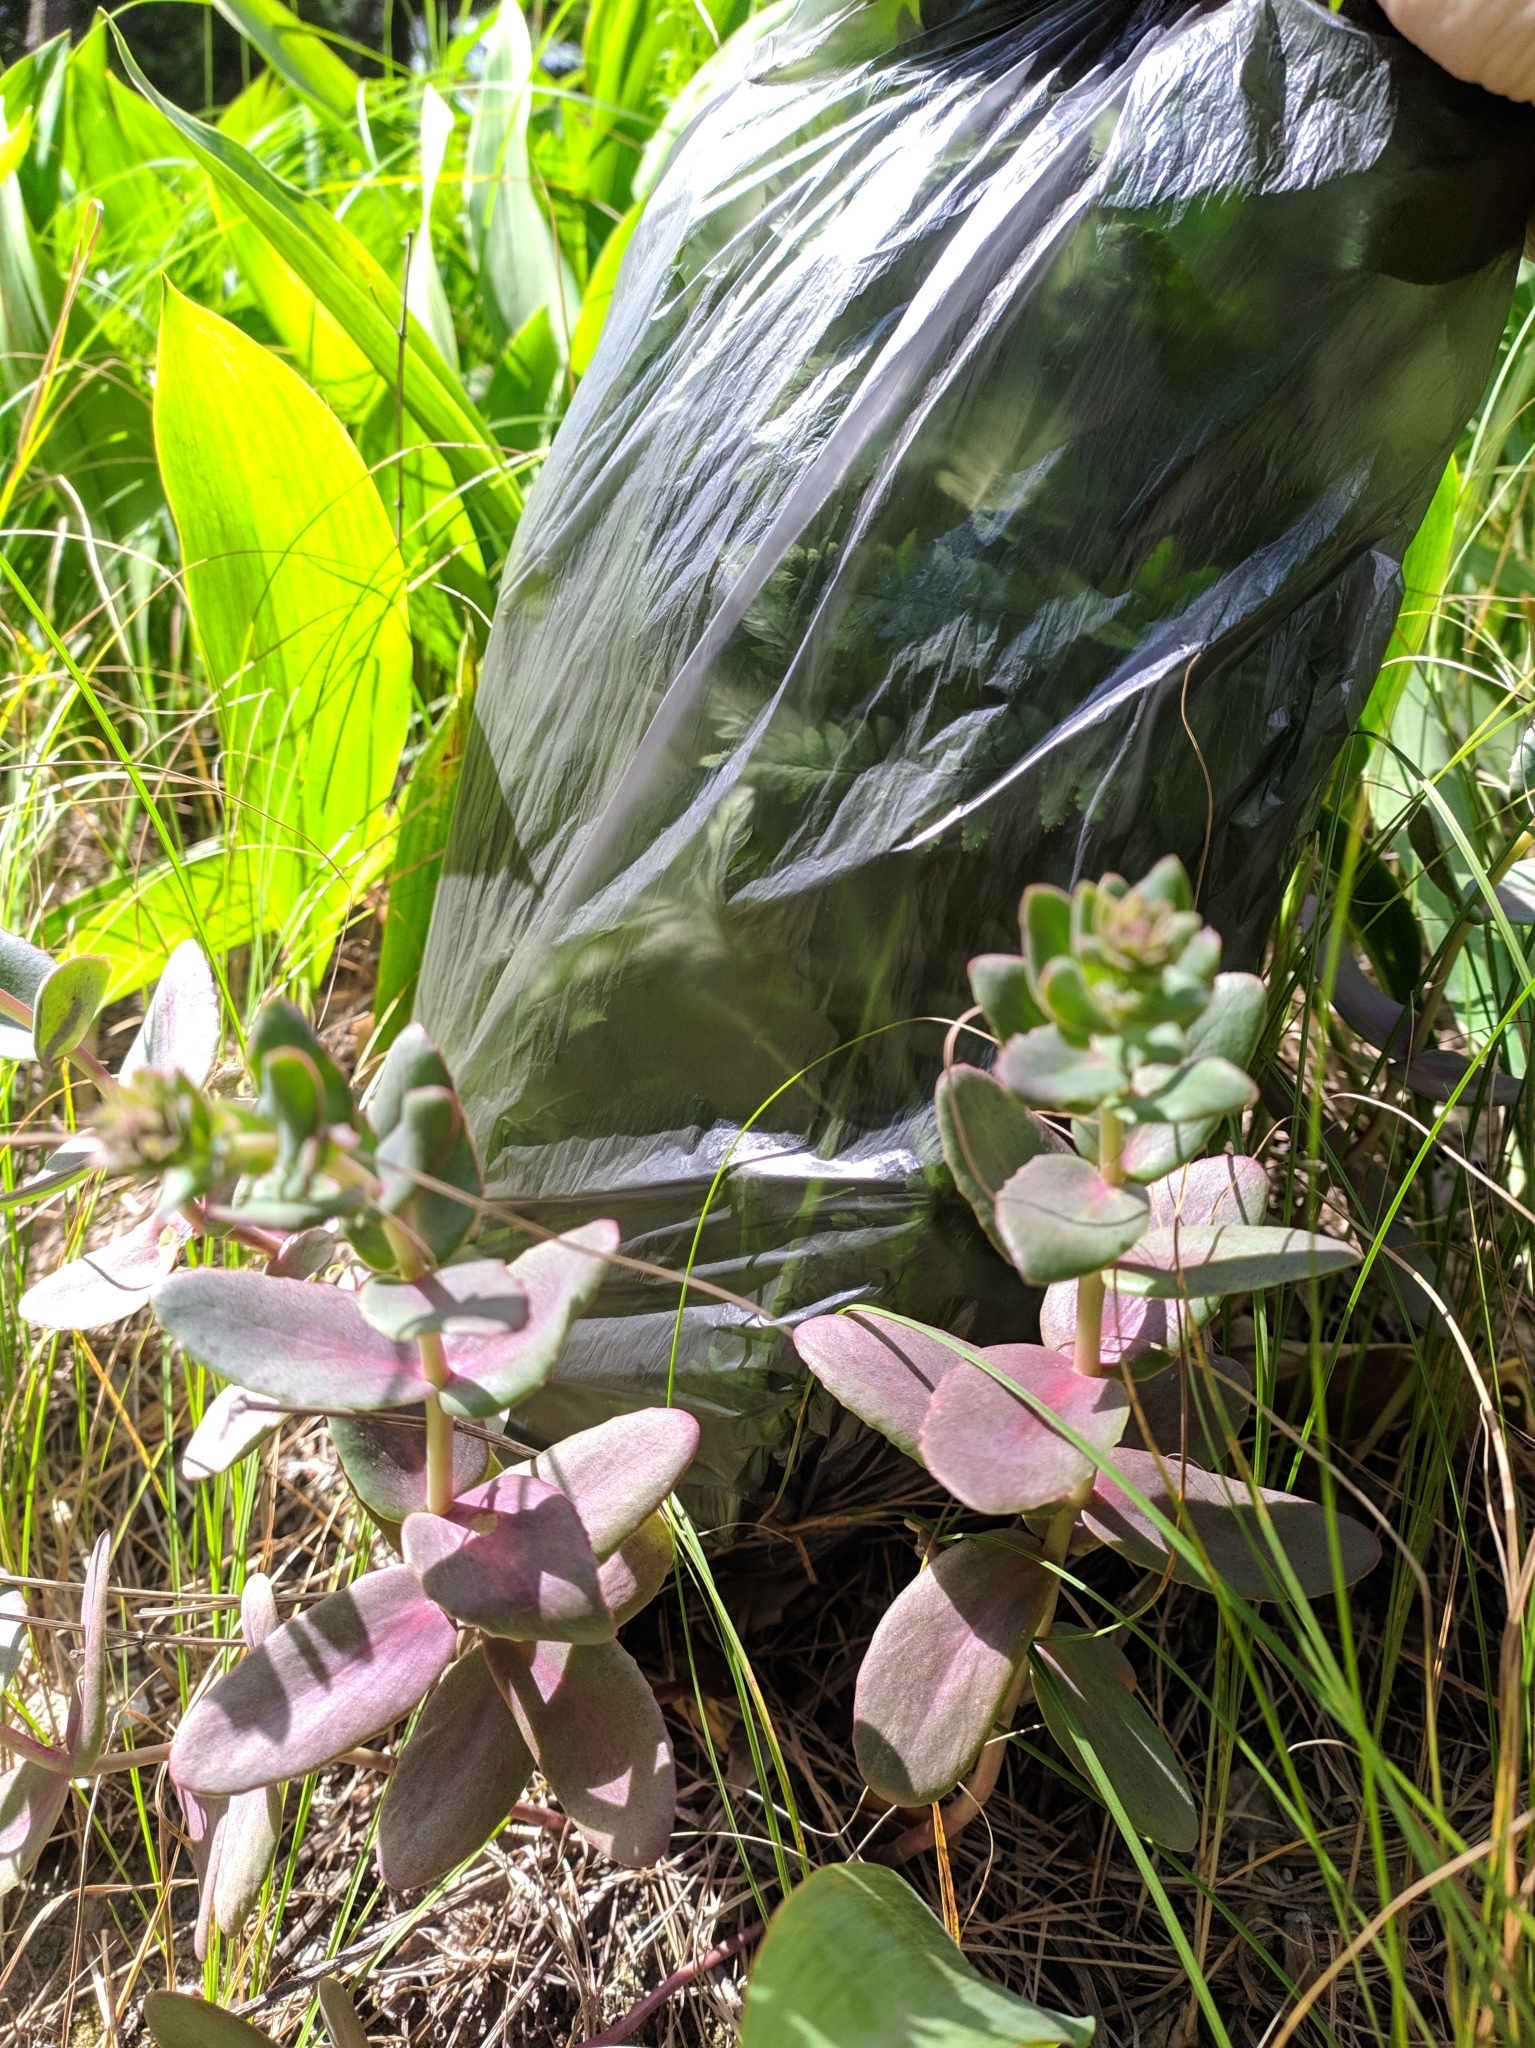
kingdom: Plantae
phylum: Tracheophyta
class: Magnoliopsida
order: Saxifragales
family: Crassulaceae
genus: Hylotelephium
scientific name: Hylotelephium maximum
